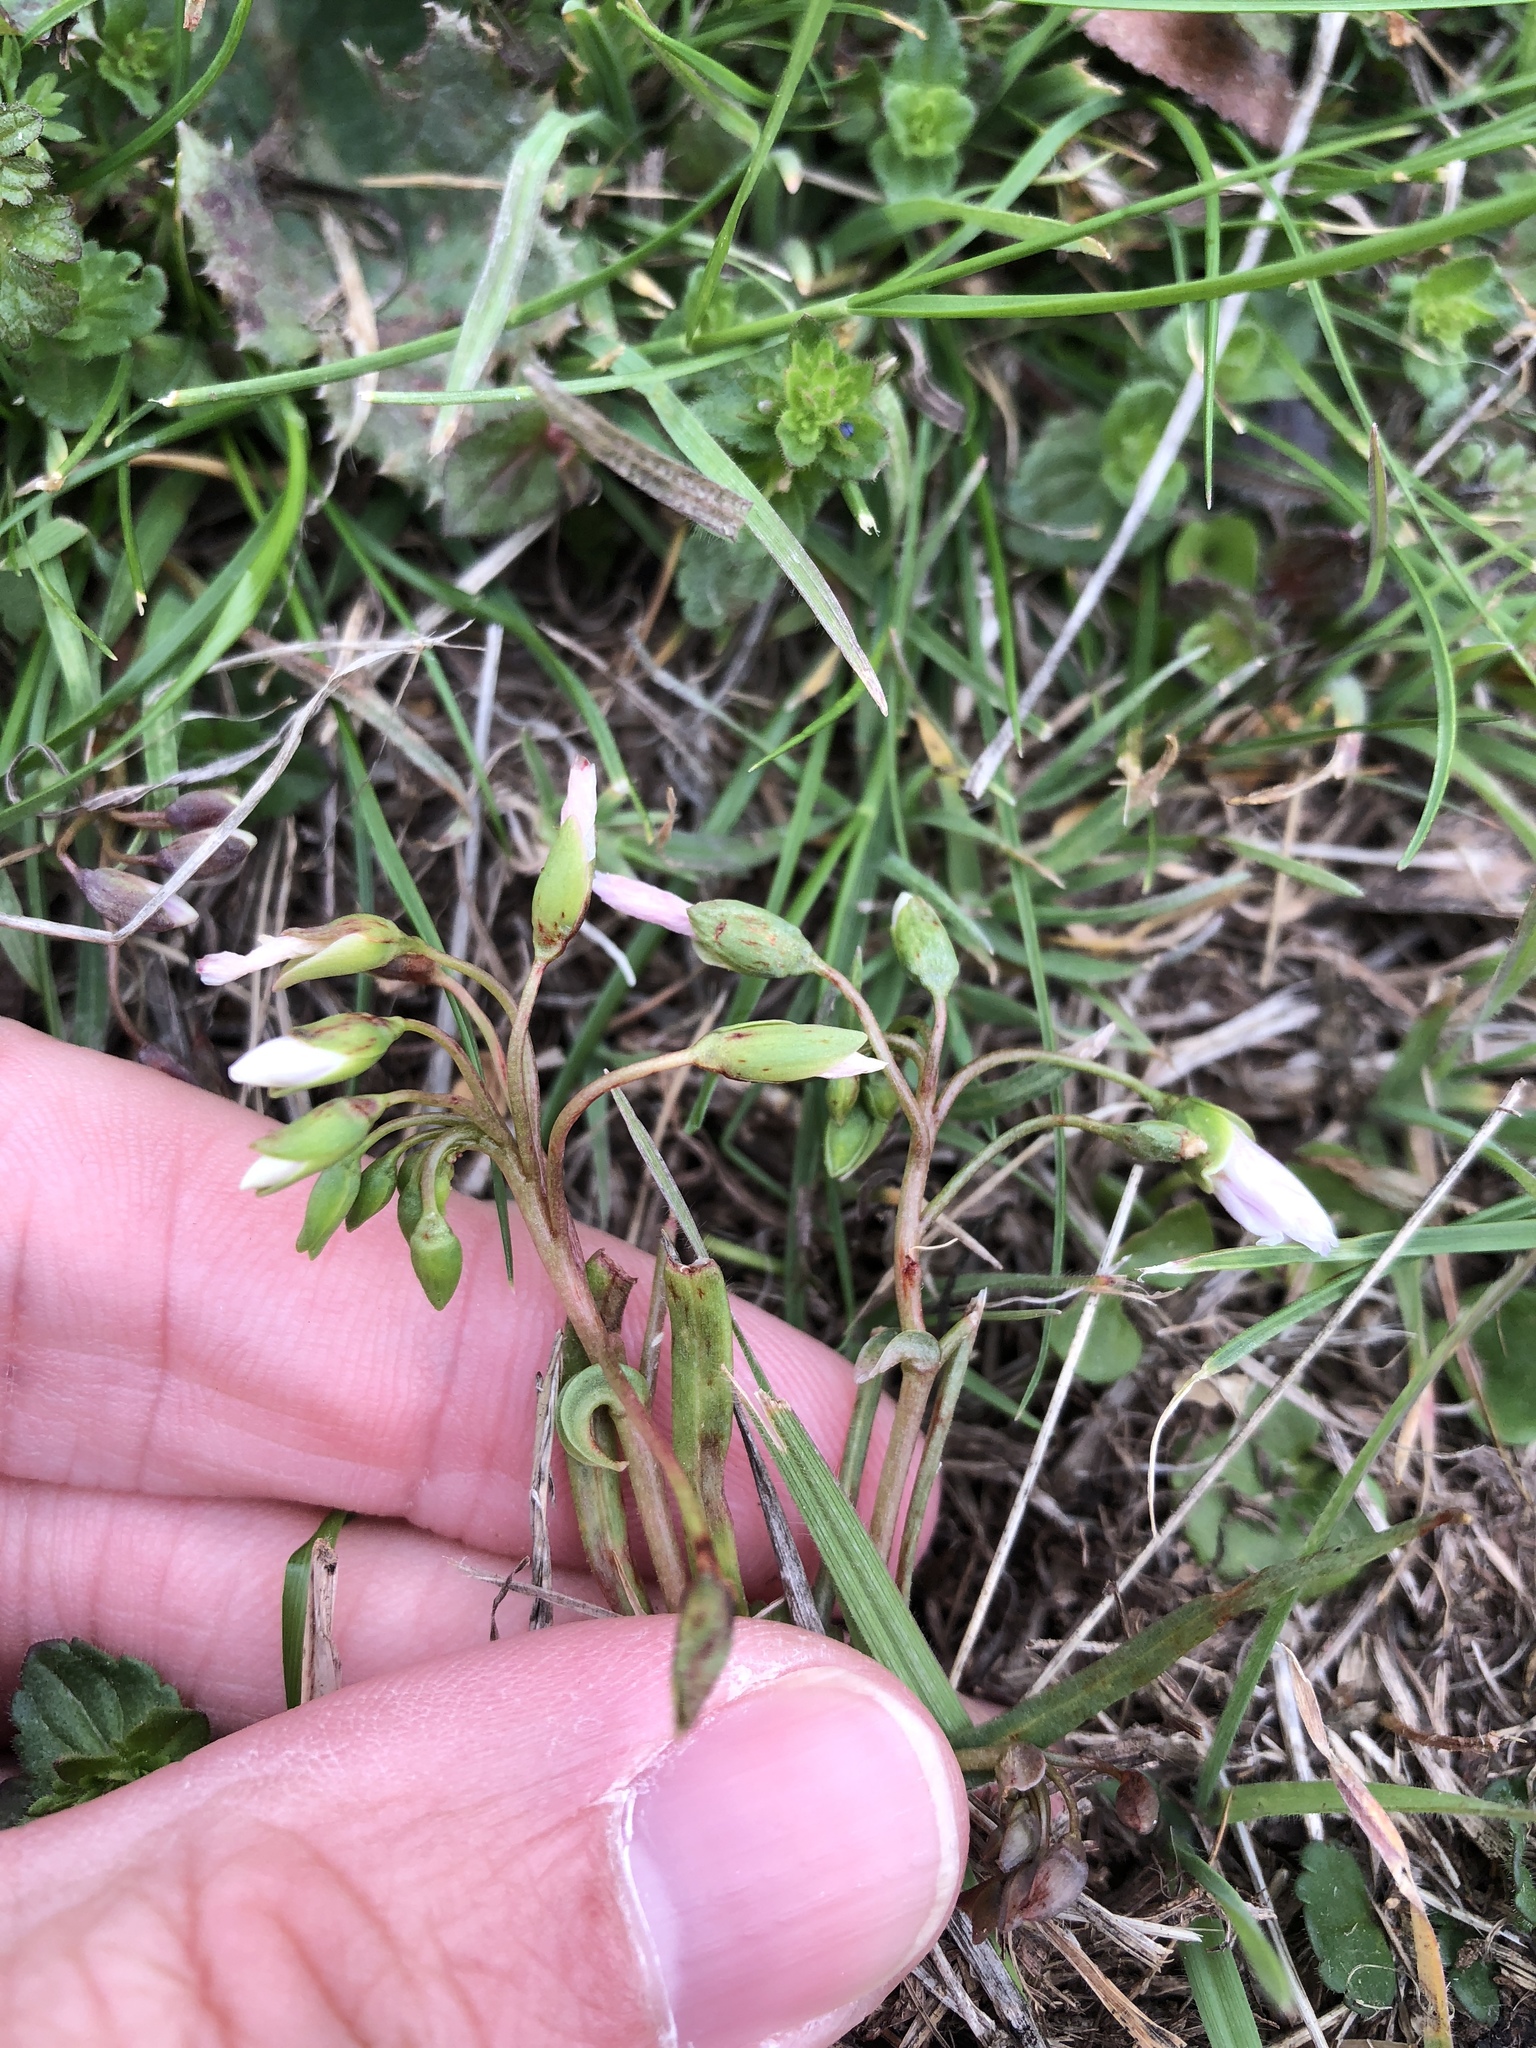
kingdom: Plantae
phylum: Tracheophyta
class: Magnoliopsida
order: Caryophyllales
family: Montiaceae
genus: Claytonia
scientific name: Claytonia virginica
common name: Virginia springbeauty
